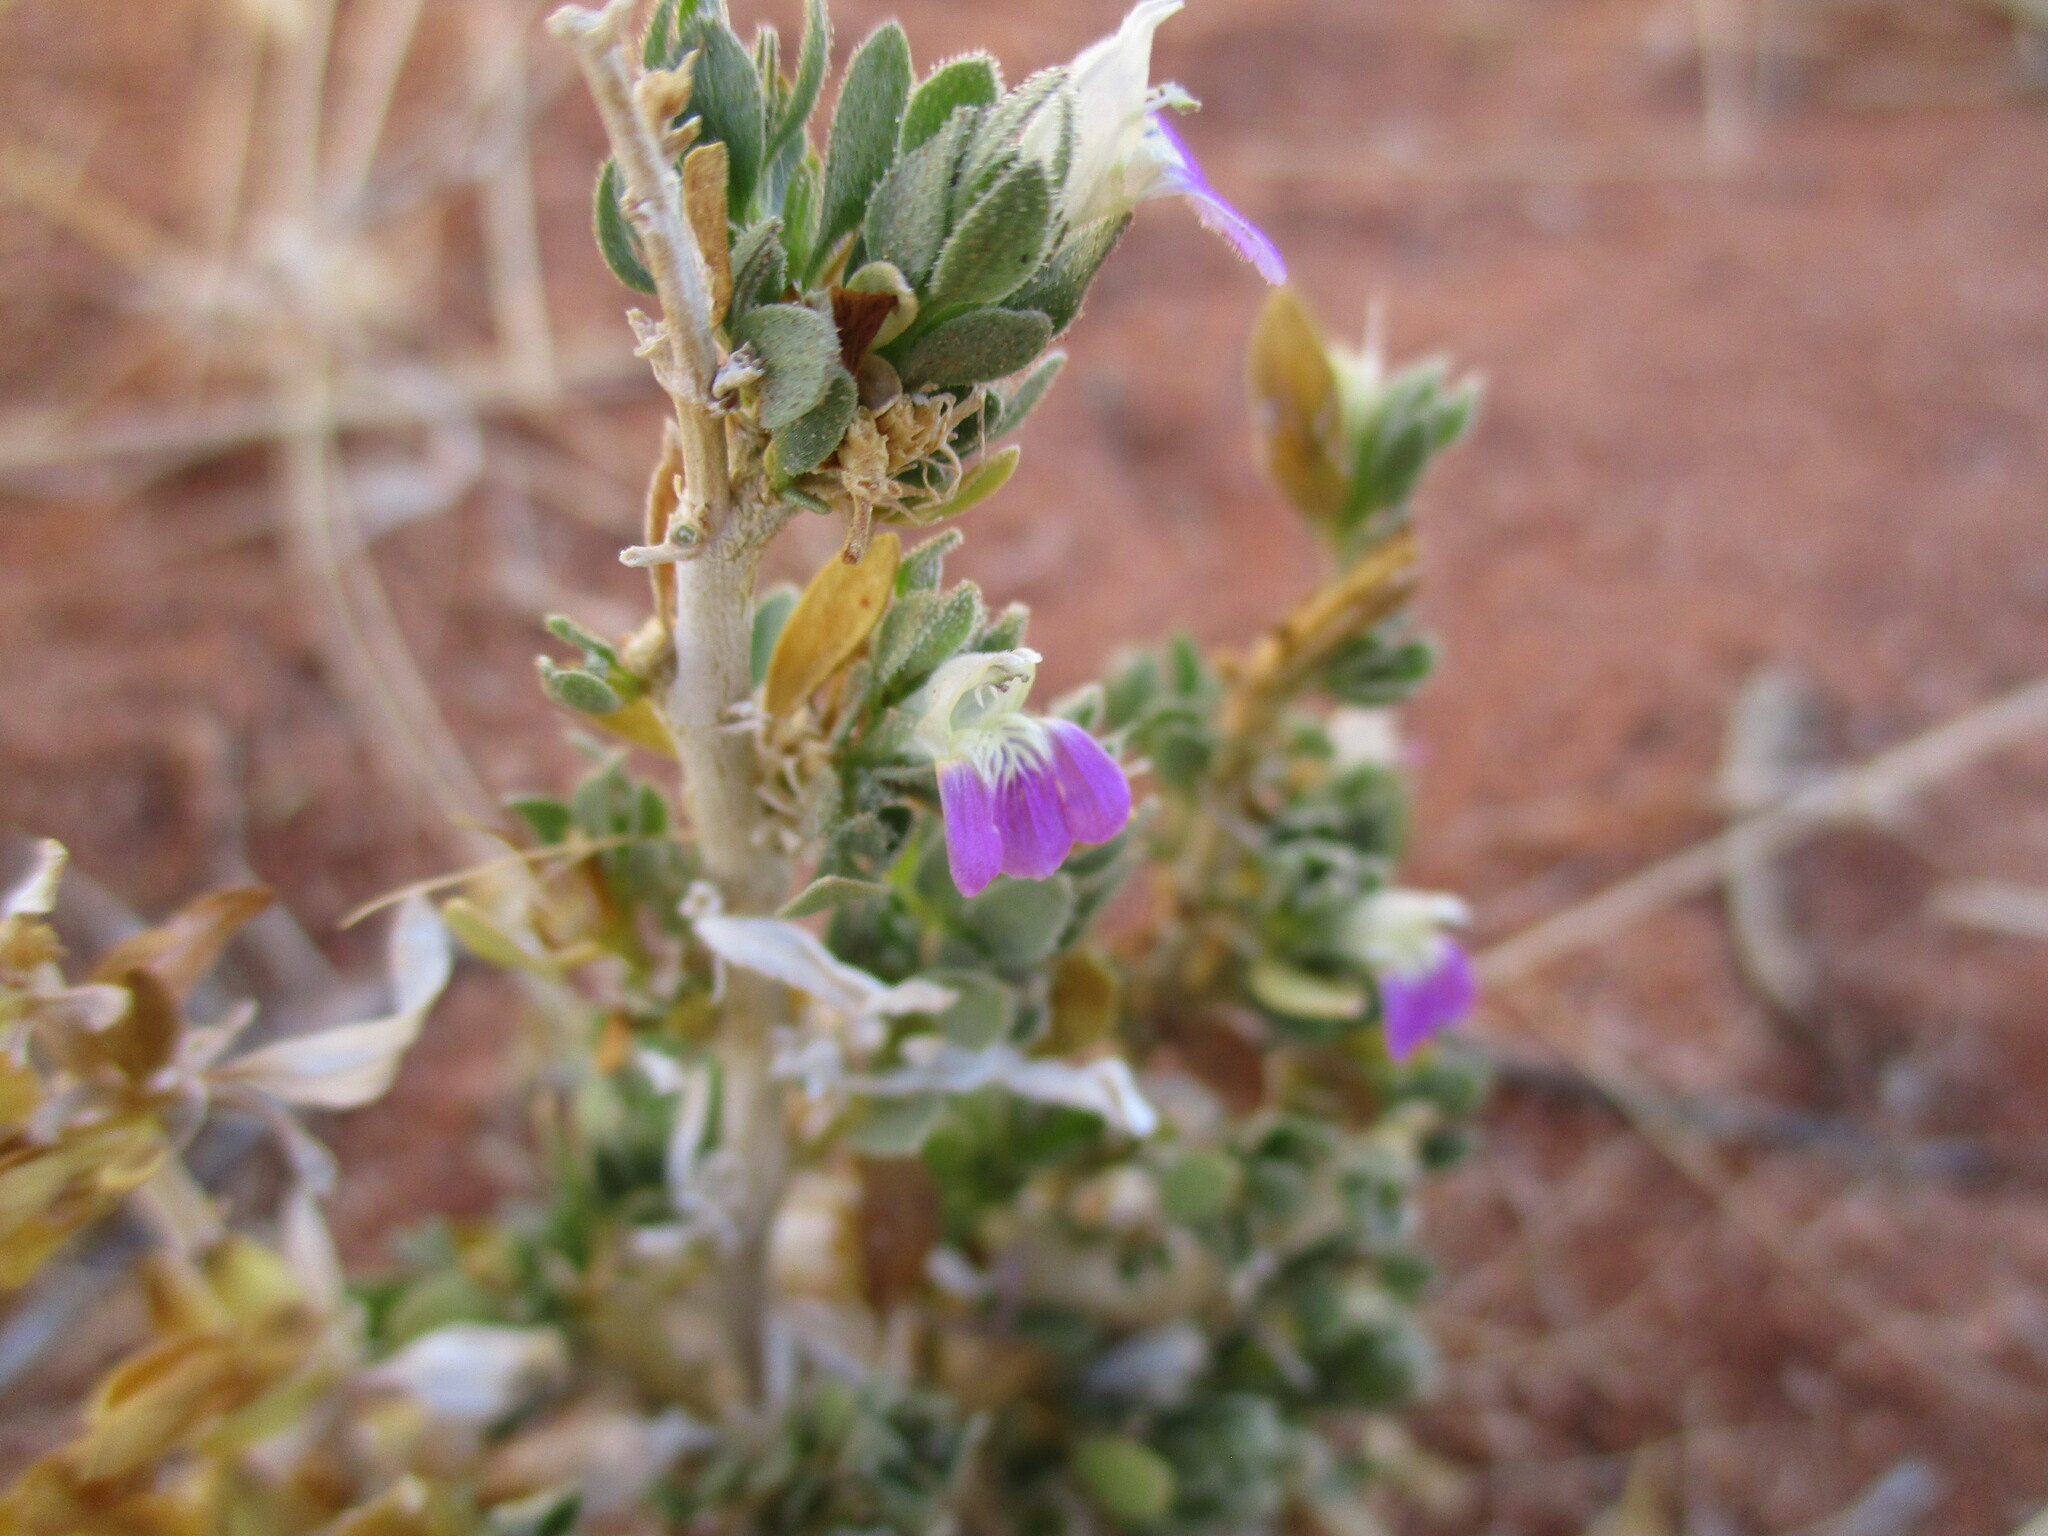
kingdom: Plantae
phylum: Tracheophyta
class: Magnoliopsida
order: Lamiales
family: Acanthaceae
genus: Pogonospermum
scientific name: Pogonospermum
